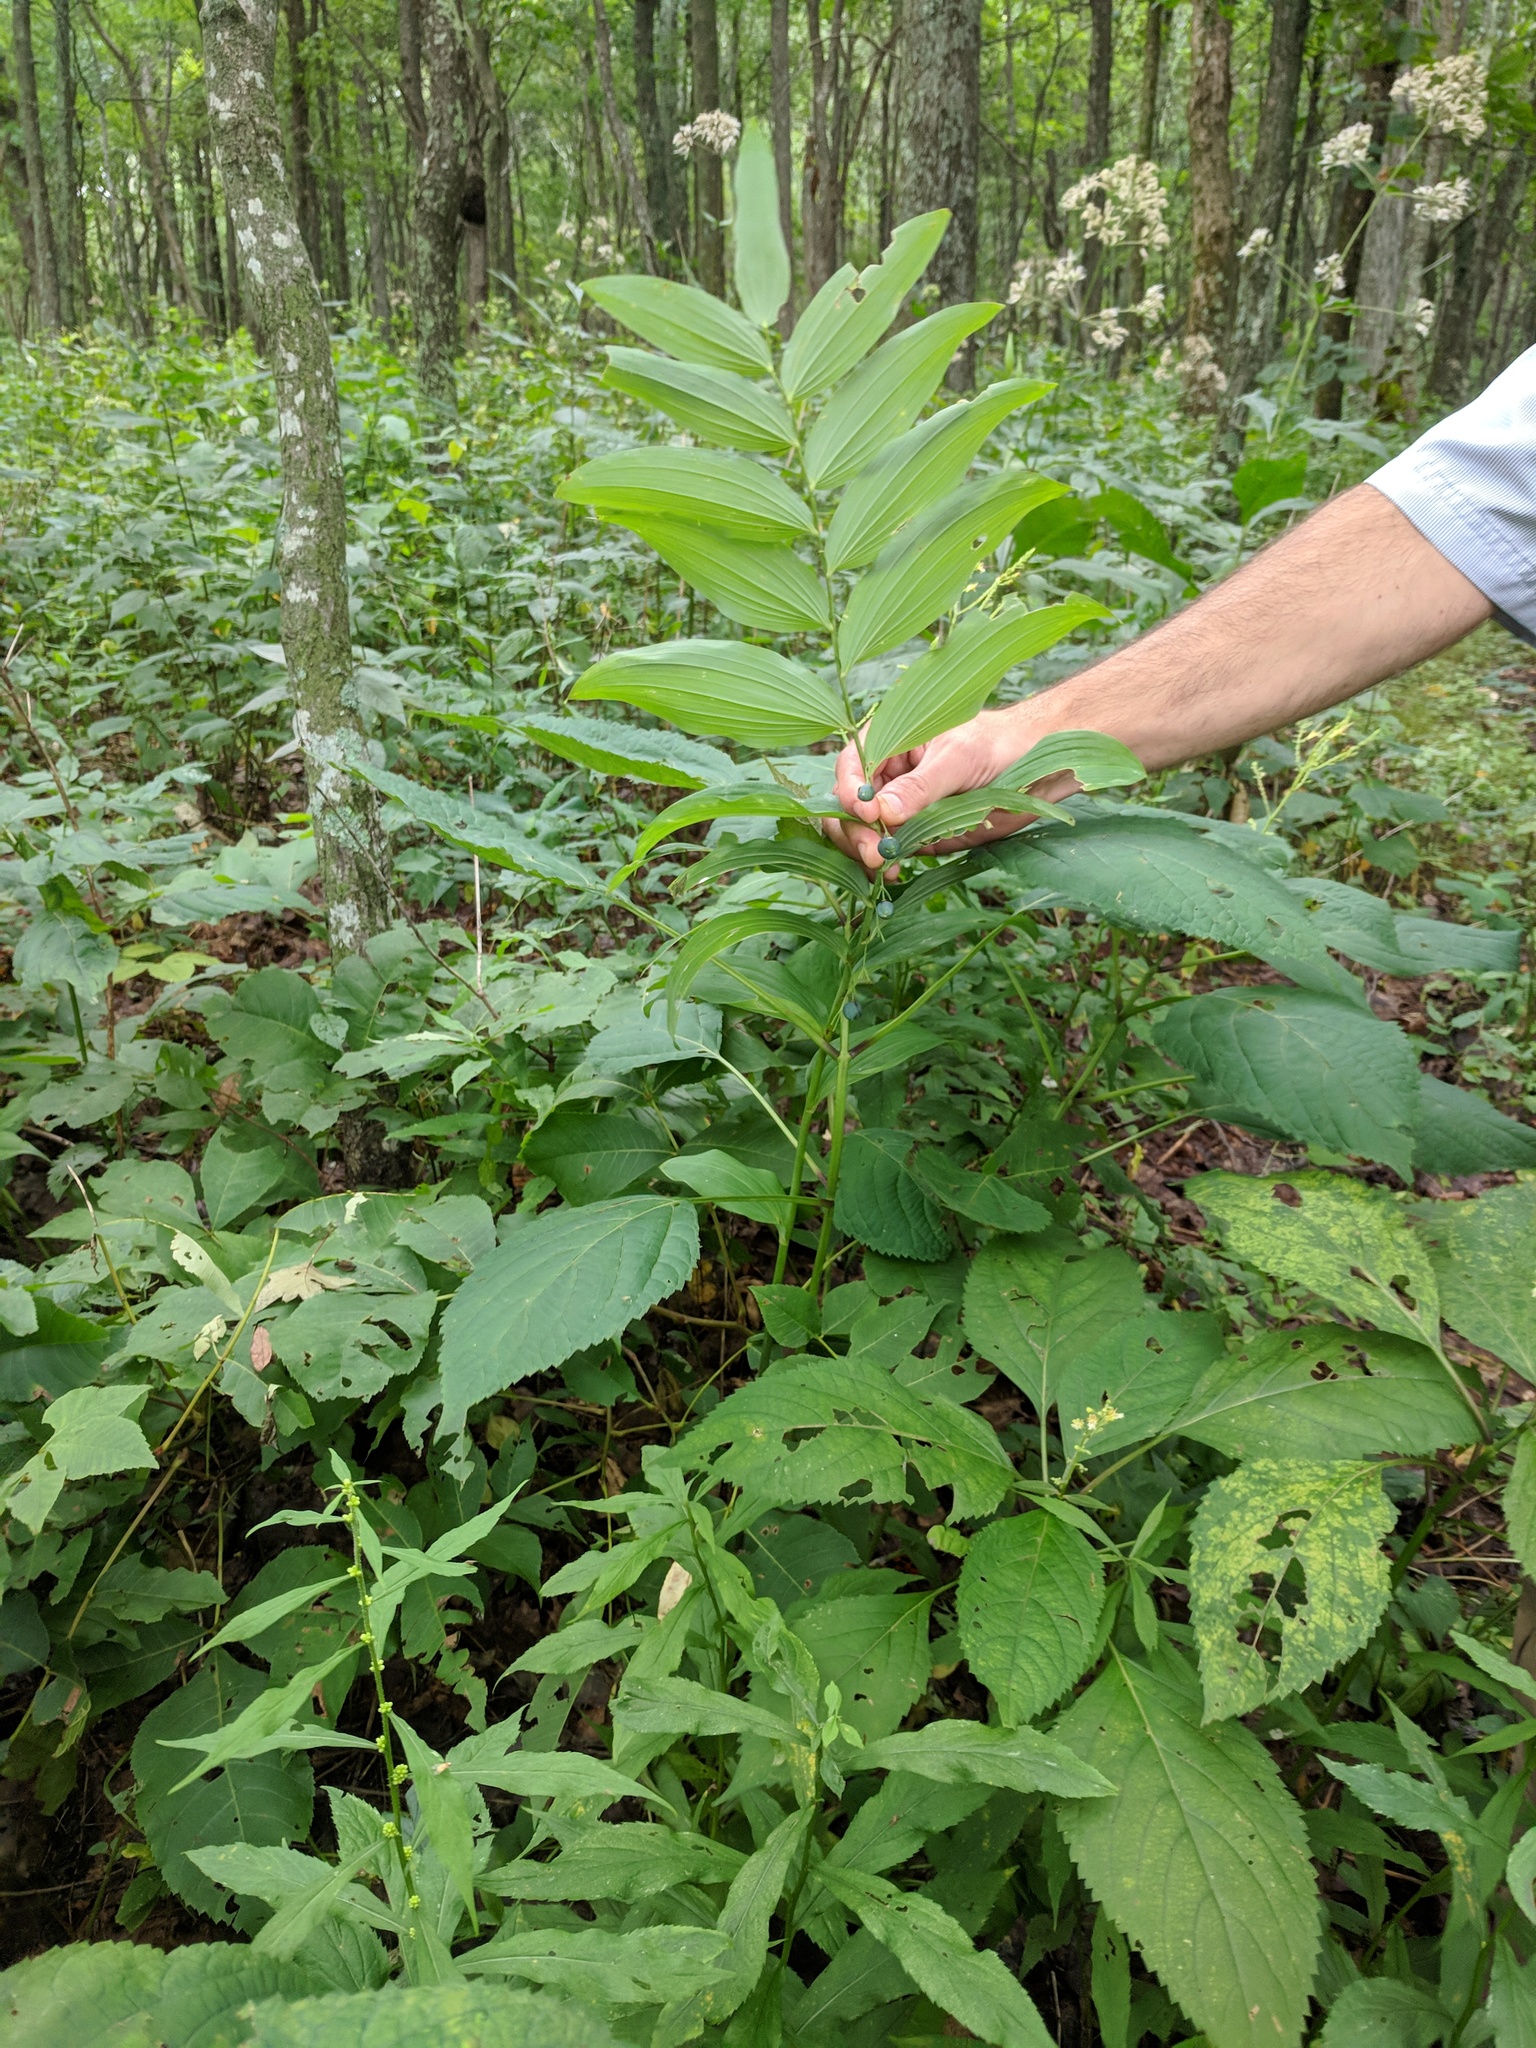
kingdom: Plantae
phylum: Tracheophyta
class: Liliopsida
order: Asparagales
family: Asparagaceae
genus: Polygonatum
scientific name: Polygonatum biflorum
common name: American solomon's-seal
